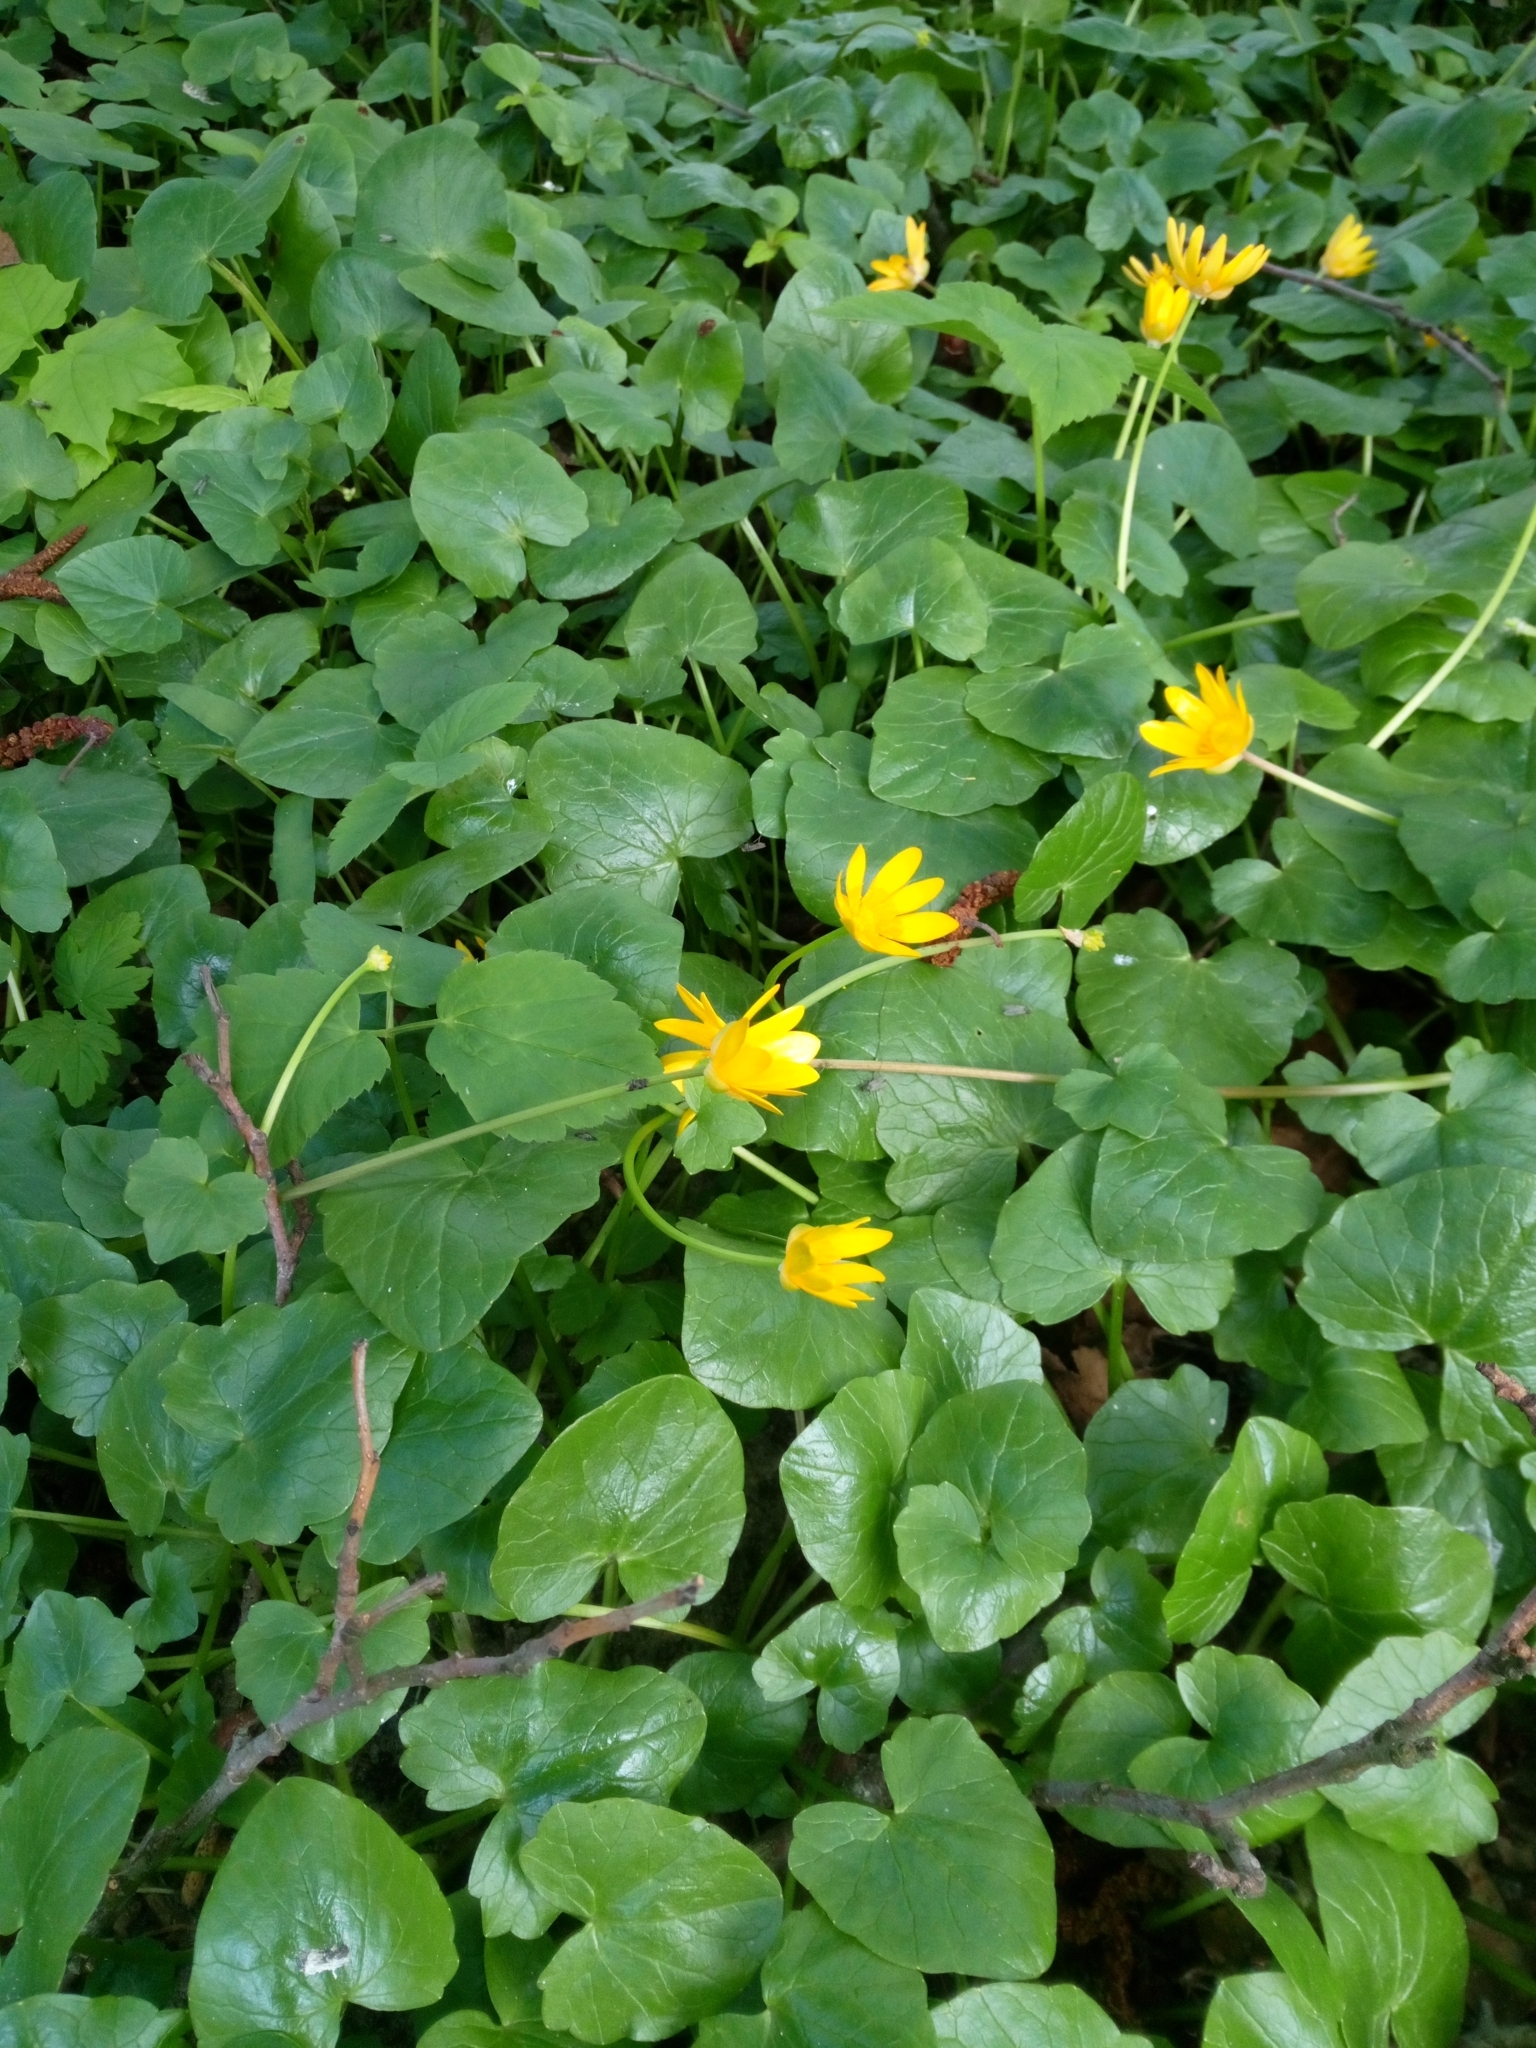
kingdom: Plantae
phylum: Tracheophyta
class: Magnoliopsida
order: Ranunculales
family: Ranunculaceae
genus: Ficaria
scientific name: Ficaria verna
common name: Lesser celandine
